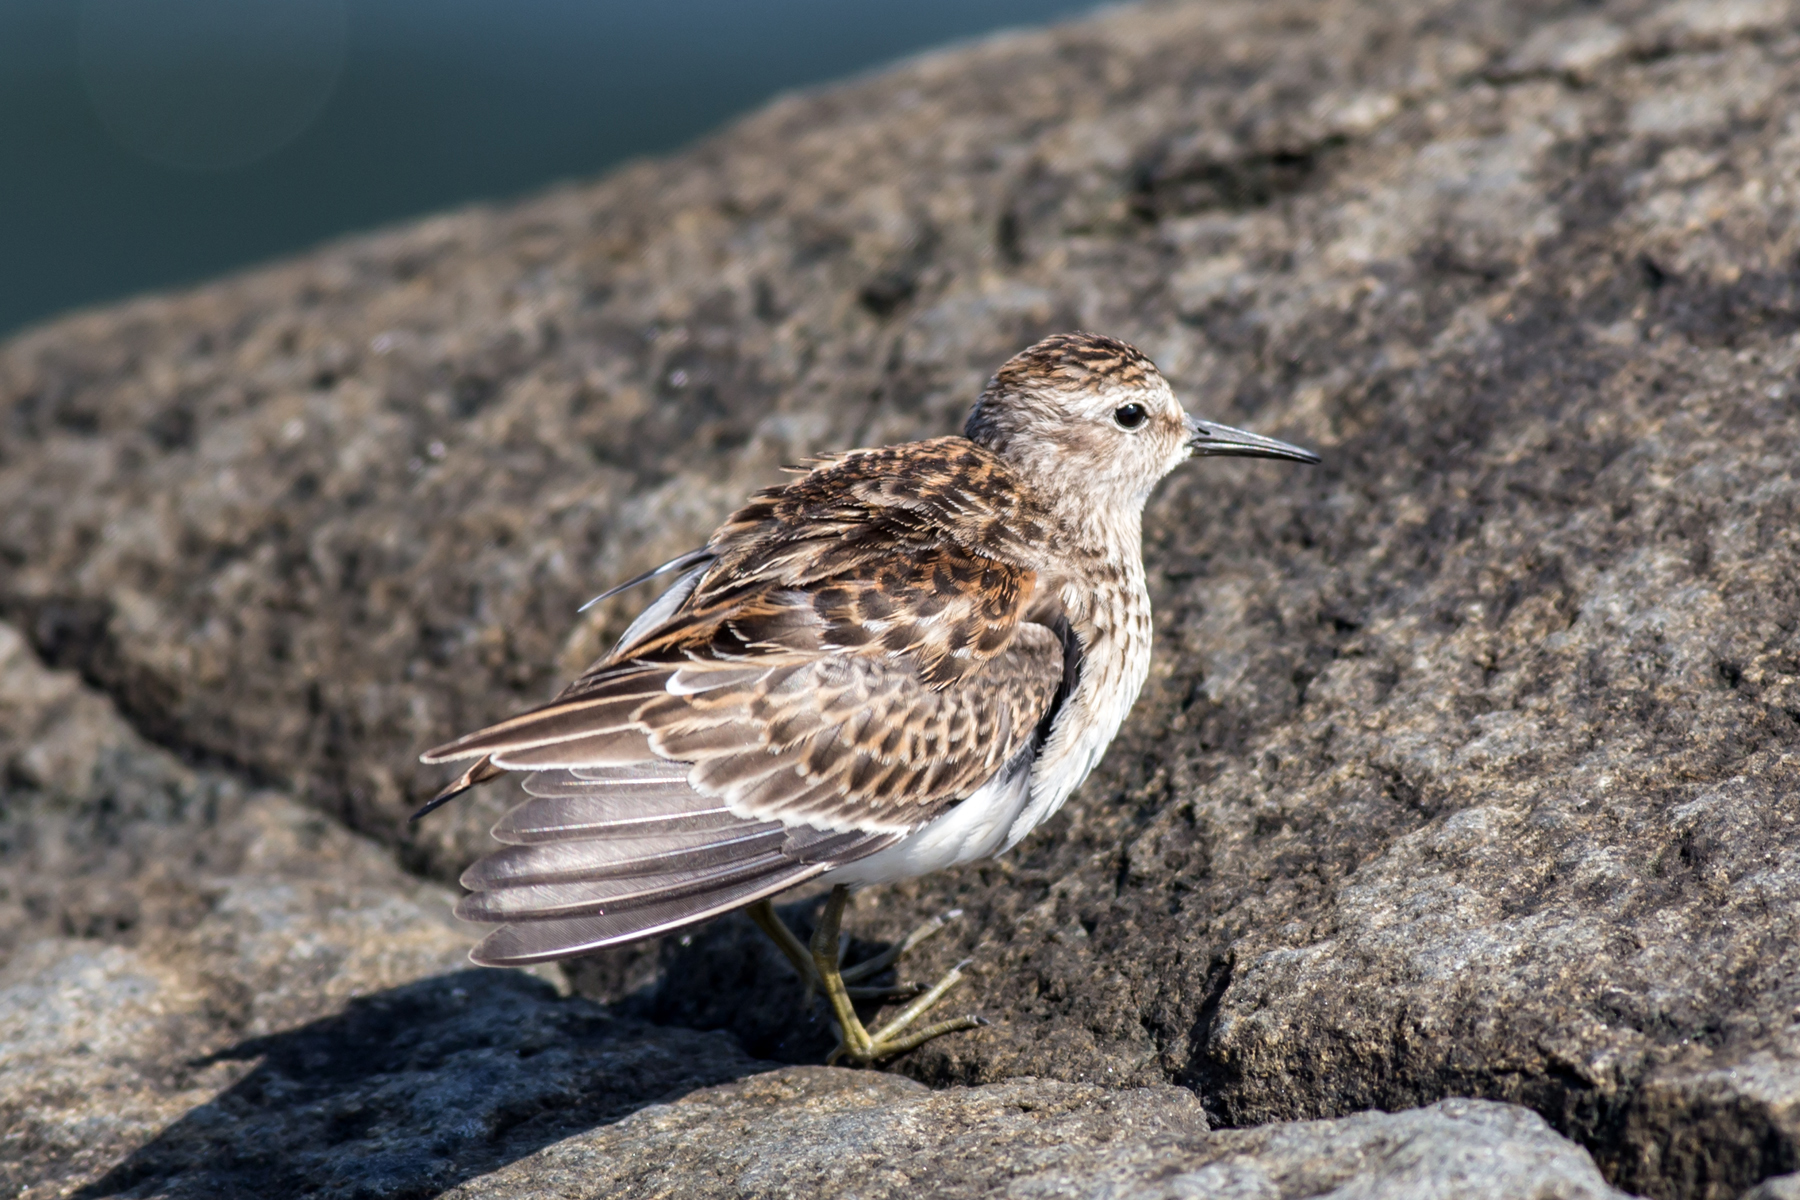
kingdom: Animalia
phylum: Chordata
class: Aves
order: Charadriiformes
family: Scolopacidae
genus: Calidris
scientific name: Calidris minutilla
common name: Least sandpiper
